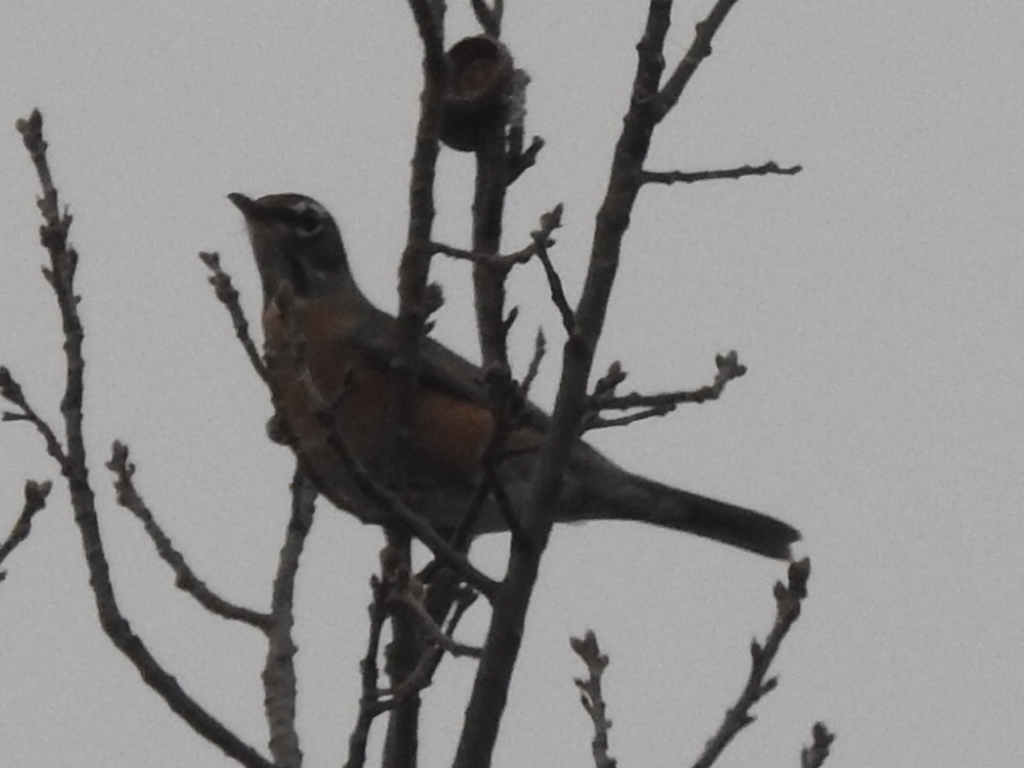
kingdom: Animalia
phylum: Chordata
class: Aves
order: Passeriformes
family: Turdidae
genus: Turdus
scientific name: Turdus migratorius
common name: American robin
